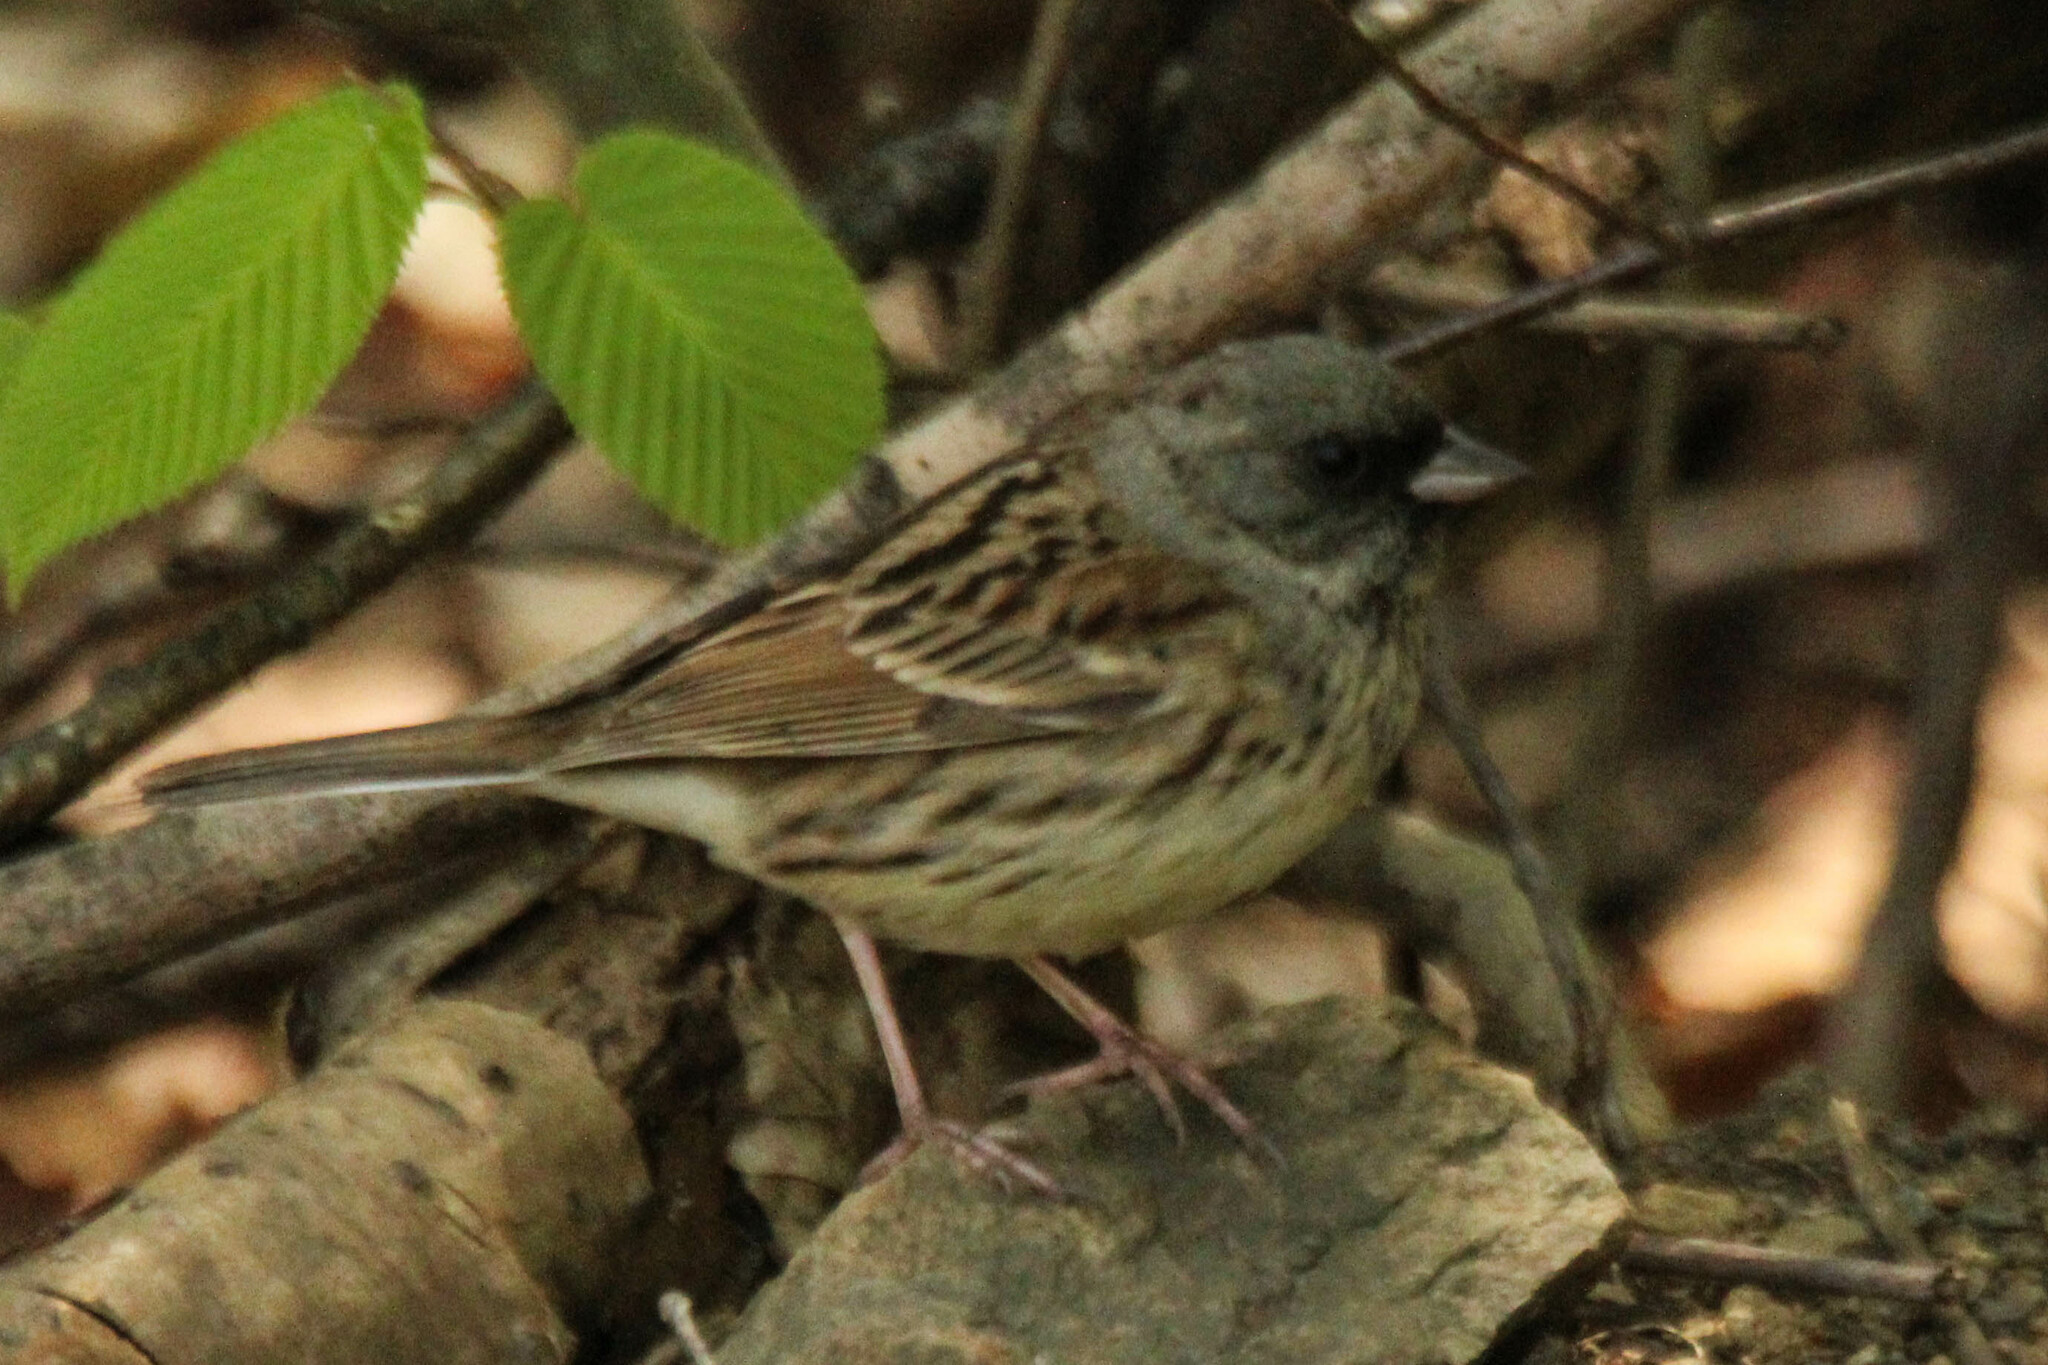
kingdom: Animalia
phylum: Chordata
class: Aves
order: Passeriformes
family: Emberizidae
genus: Emberiza
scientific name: Emberiza spodocephala
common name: Black-faced bunting
